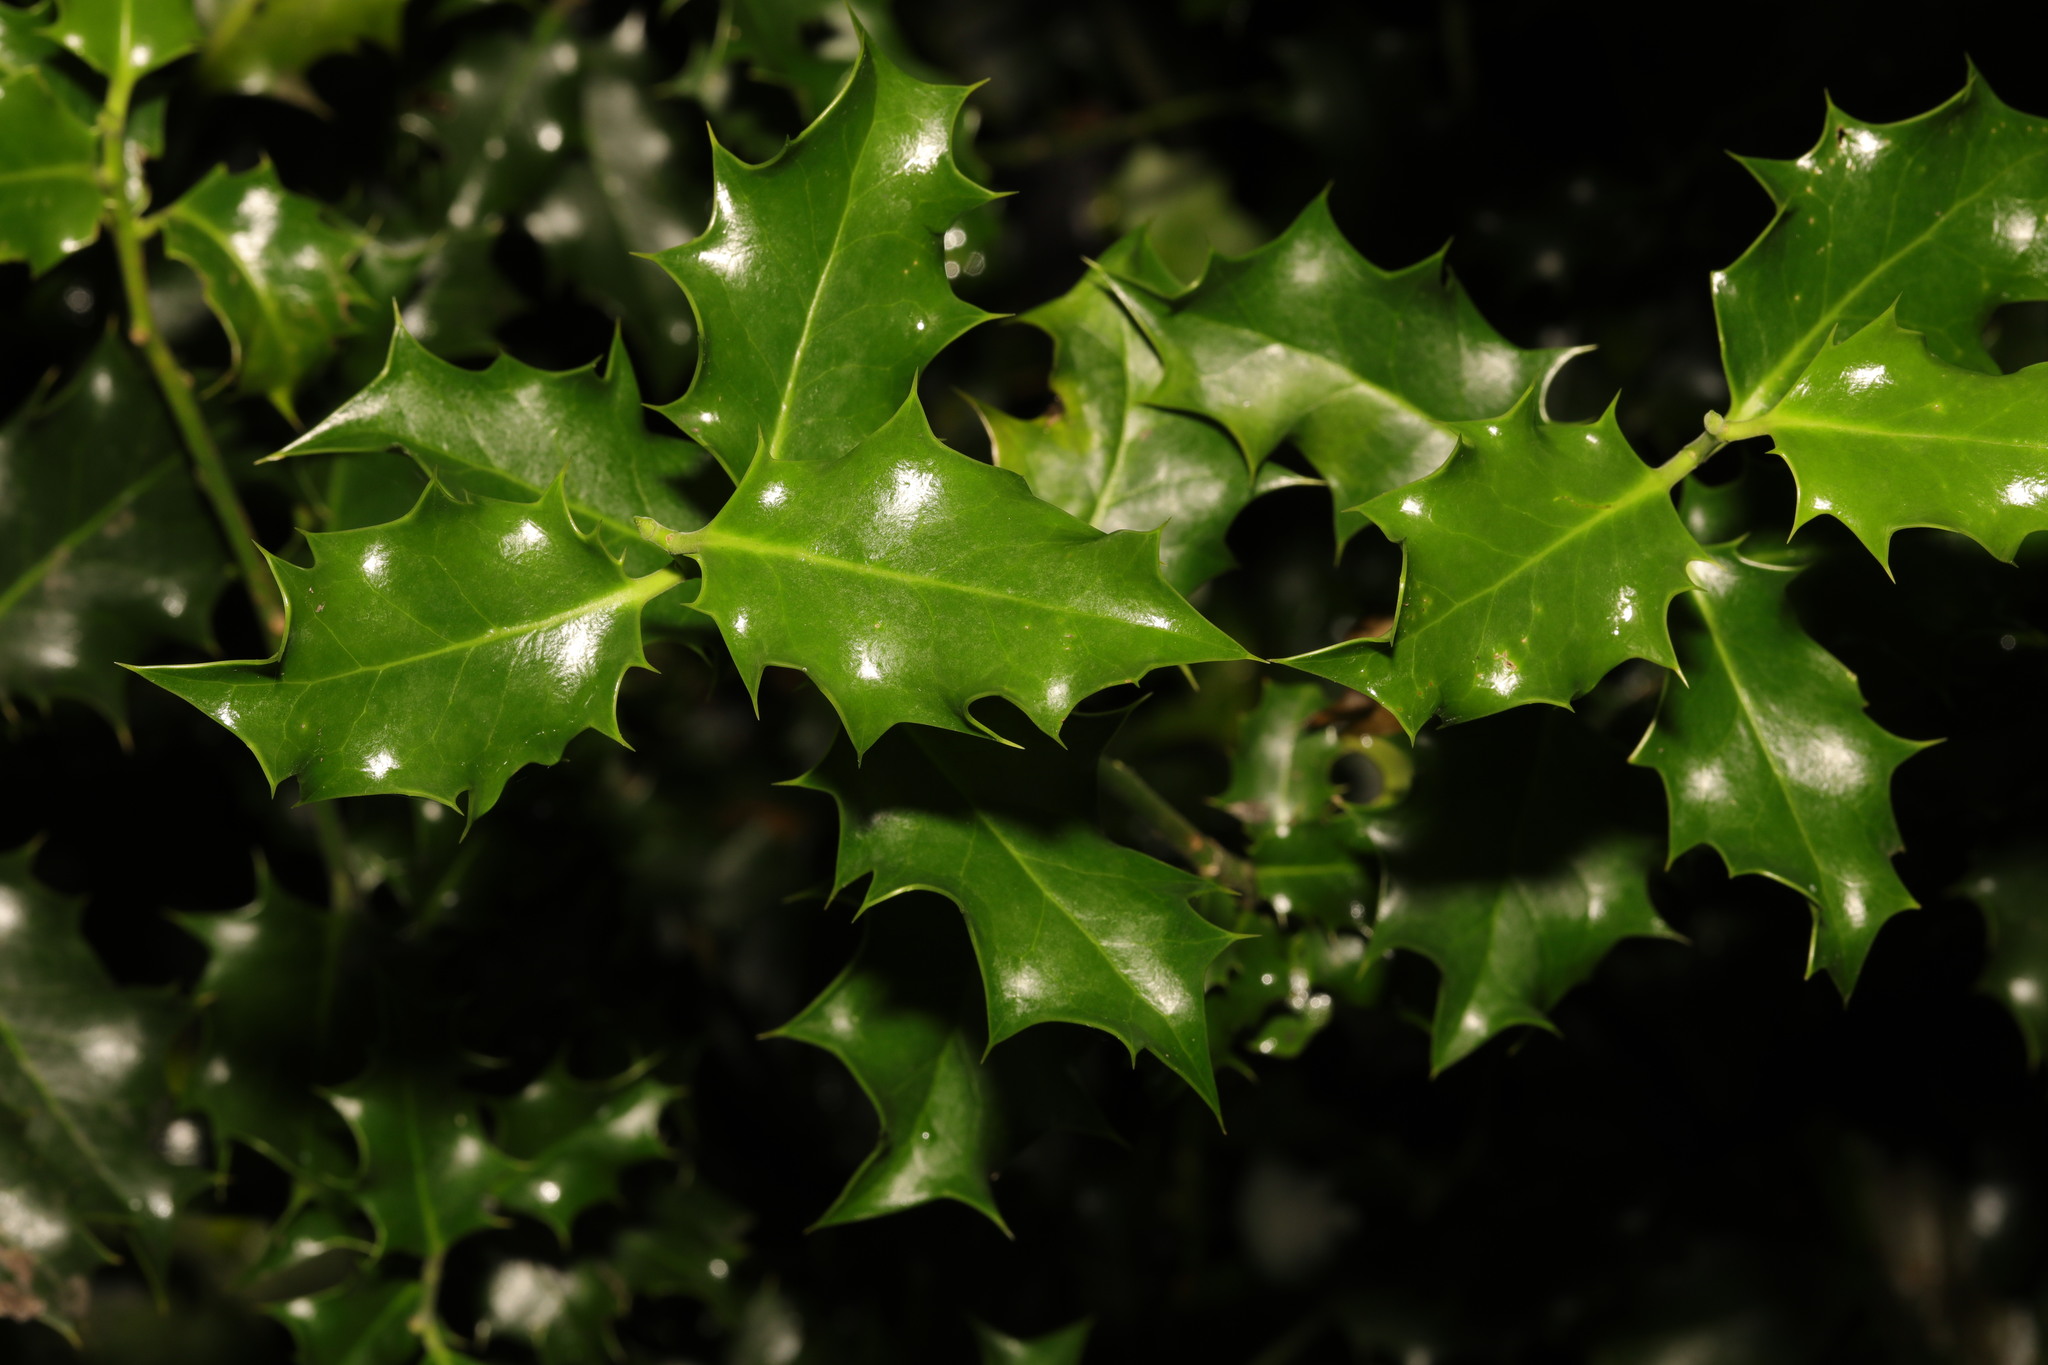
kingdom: Plantae
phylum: Tracheophyta
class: Magnoliopsida
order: Aquifoliales
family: Aquifoliaceae
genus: Ilex
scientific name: Ilex aquifolium
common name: English holly
